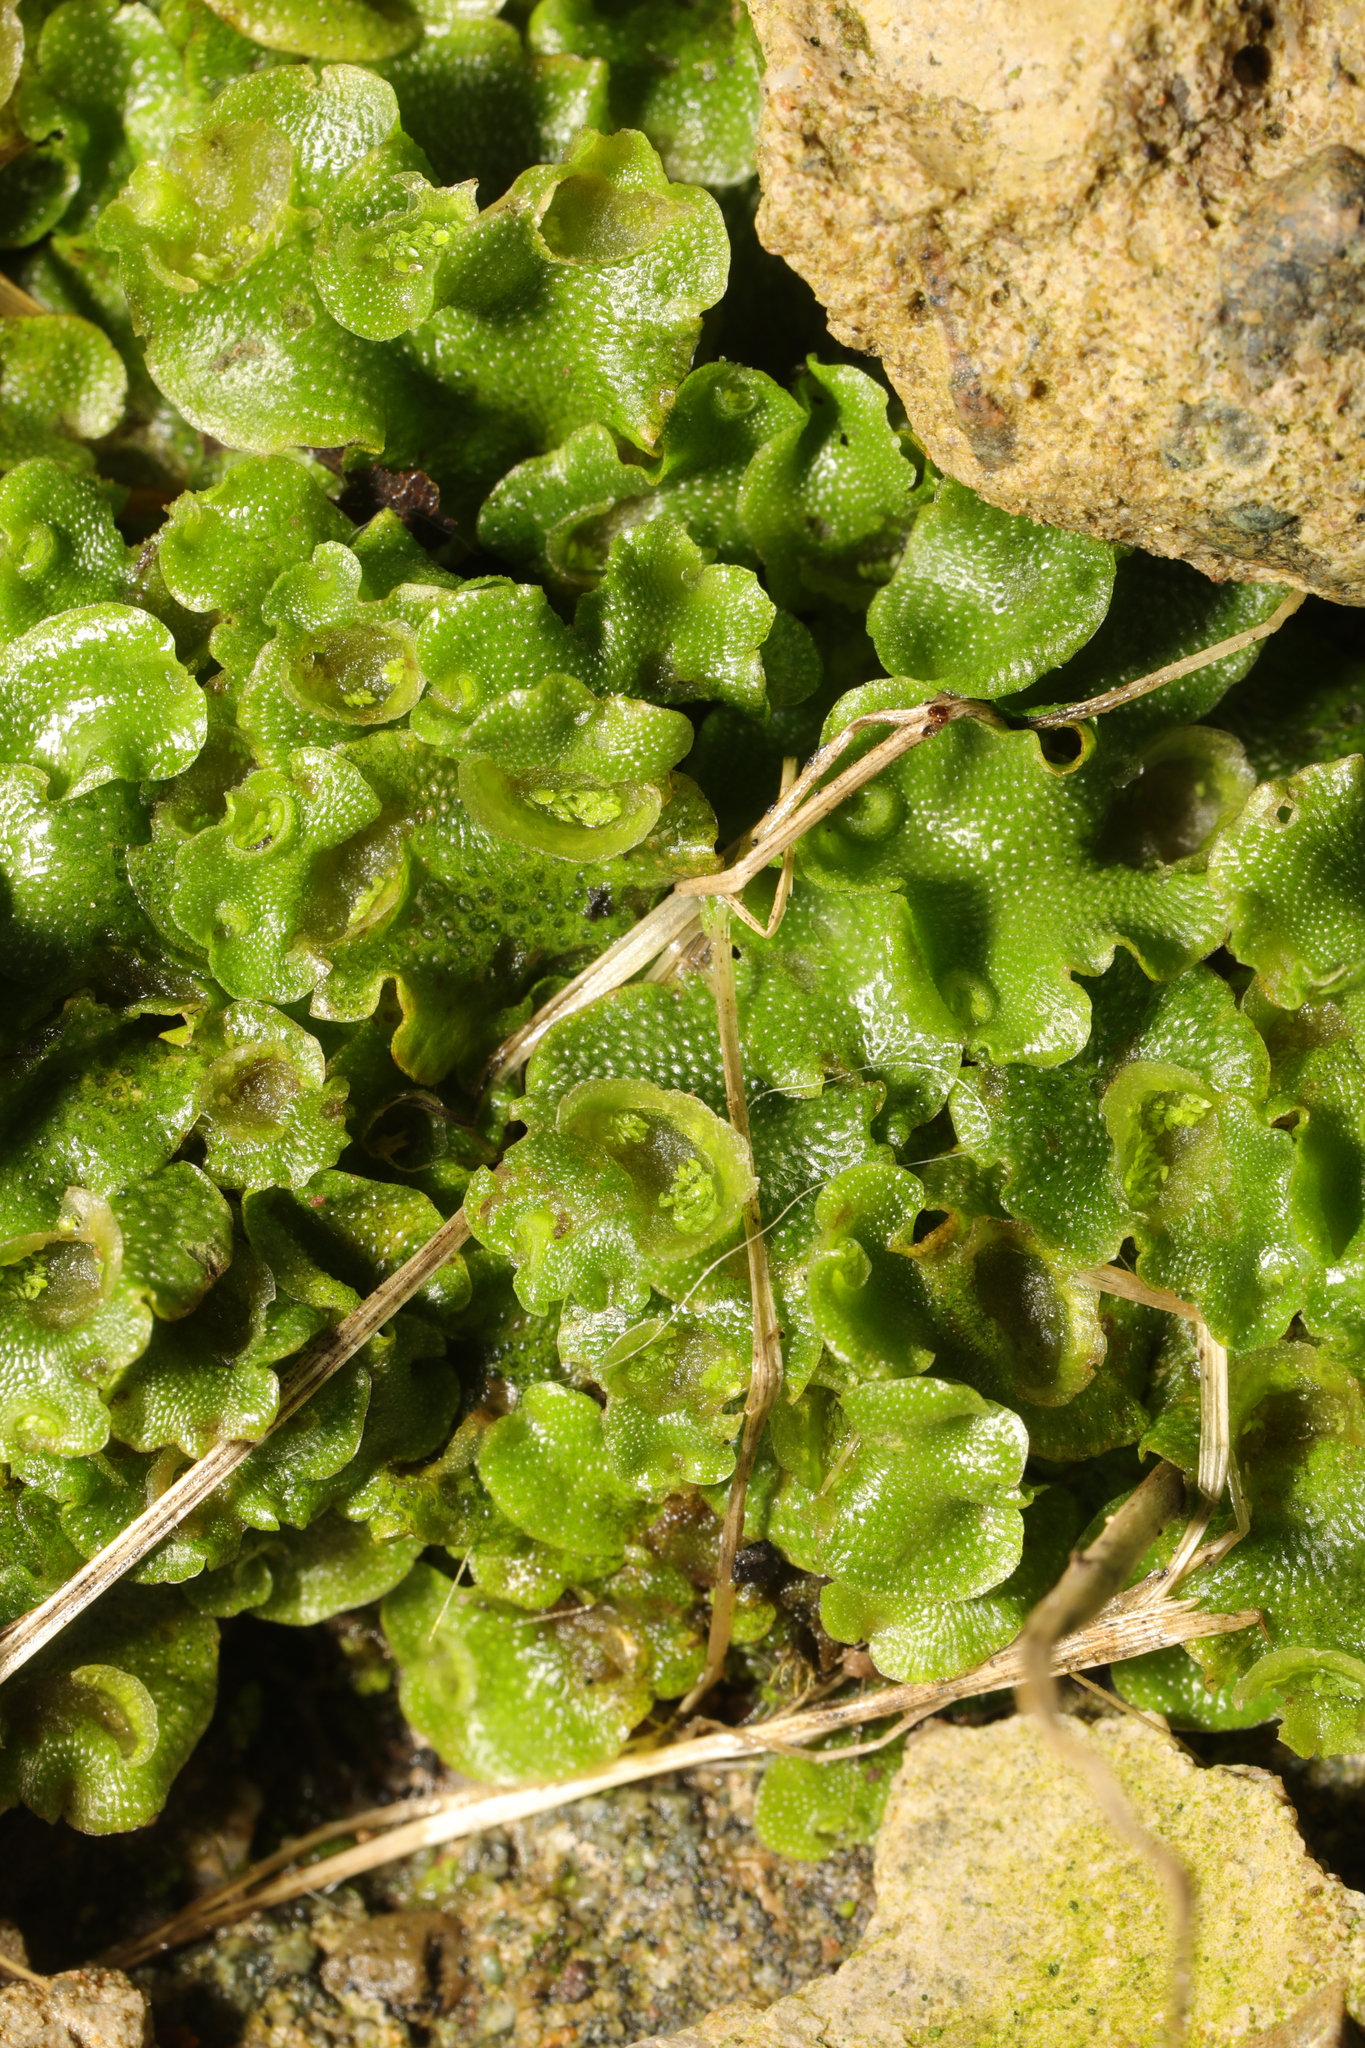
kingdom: Plantae
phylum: Marchantiophyta
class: Marchantiopsida
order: Lunulariales
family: Lunulariaceae
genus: Lunularia
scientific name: Lunularia cruciata
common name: Crescent-cup liverwort
